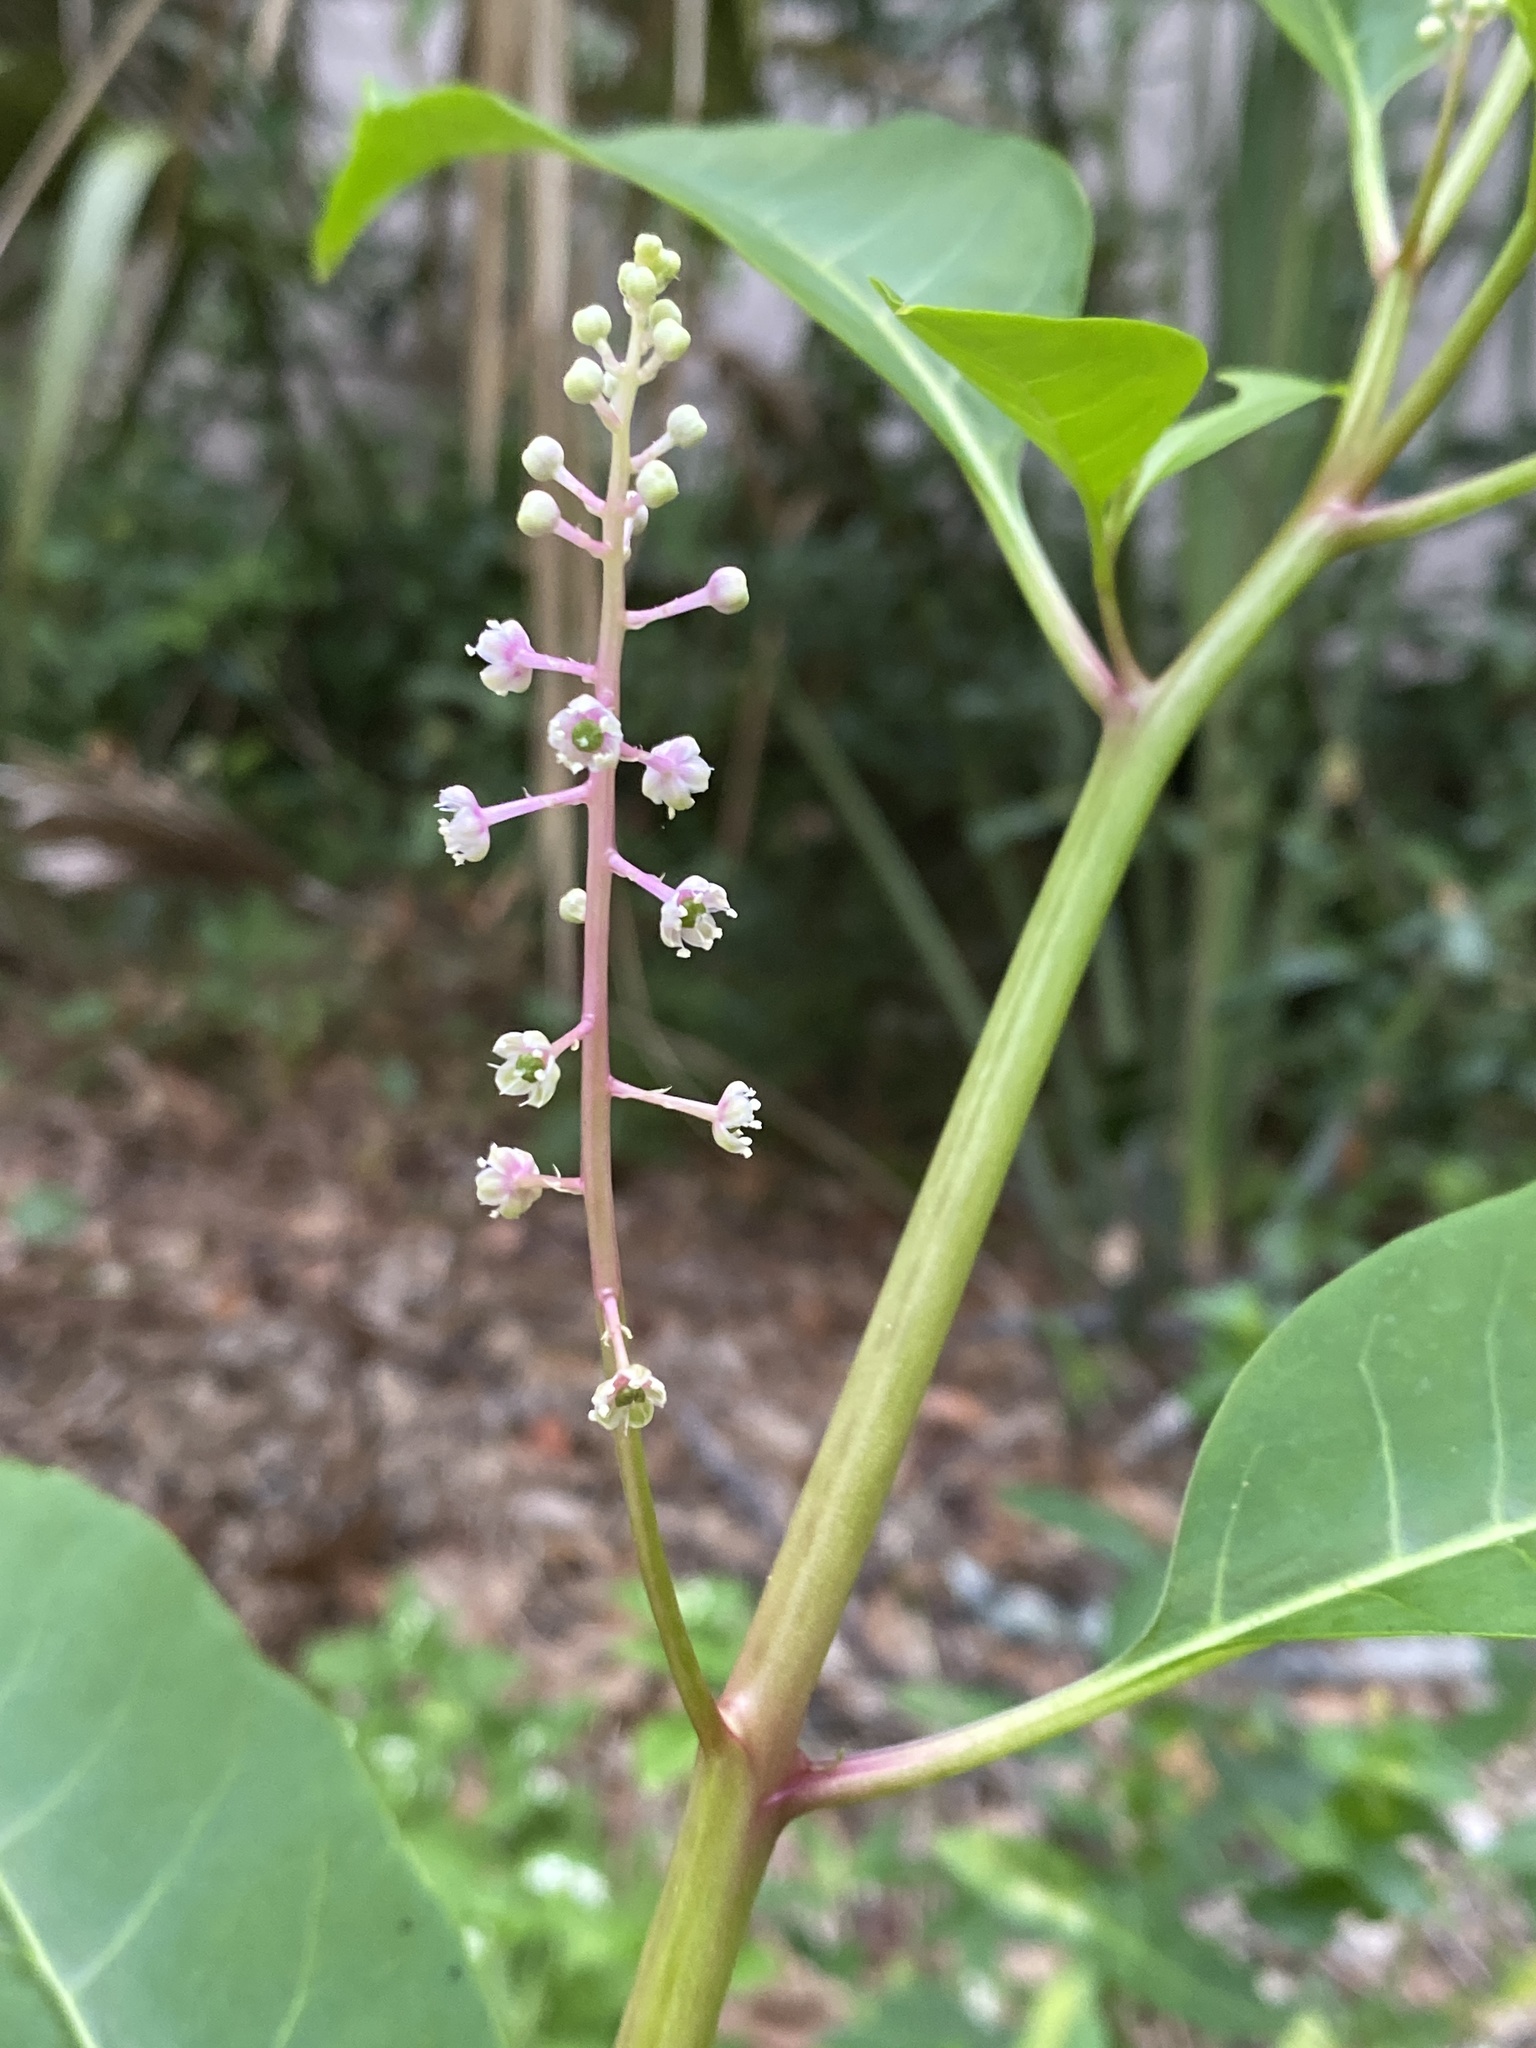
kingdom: Plantae
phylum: Tracheophyta
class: Magnoliopsida
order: Caryophyllales
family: Phytolaccaceae
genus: Phytolacca
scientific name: Phytolacca americana
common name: American pokeweed
